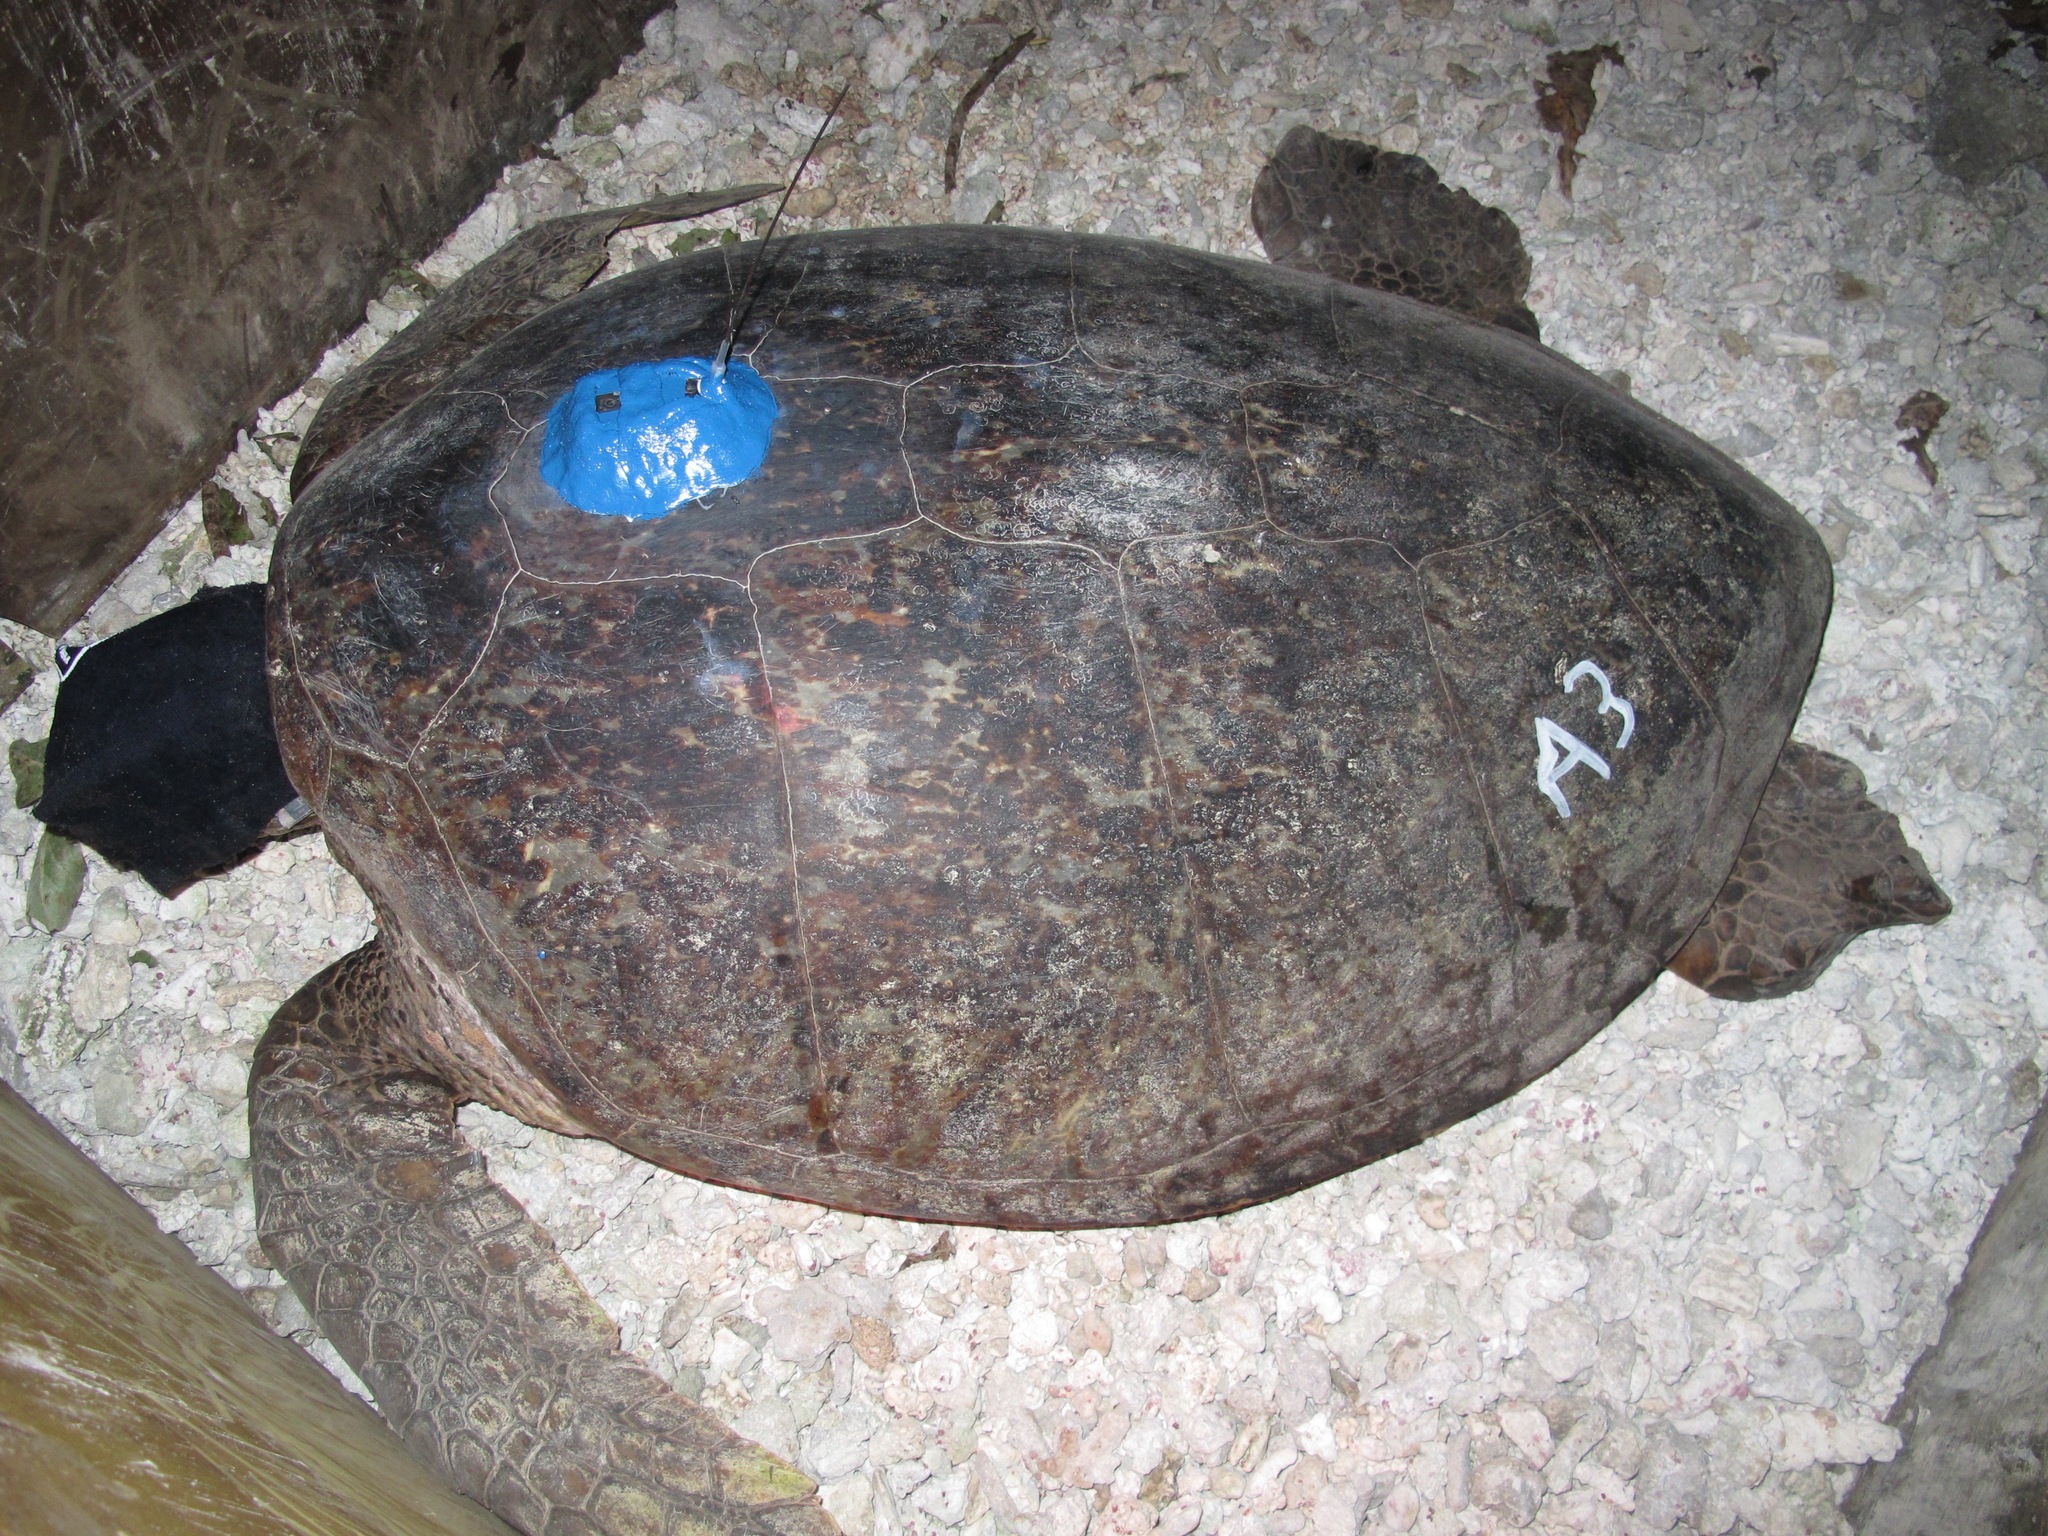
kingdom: Animalia
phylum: Chordata
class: Testudines
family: Cheloniidae
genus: Chelonia
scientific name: Chelonia mydas
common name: Green turtle
